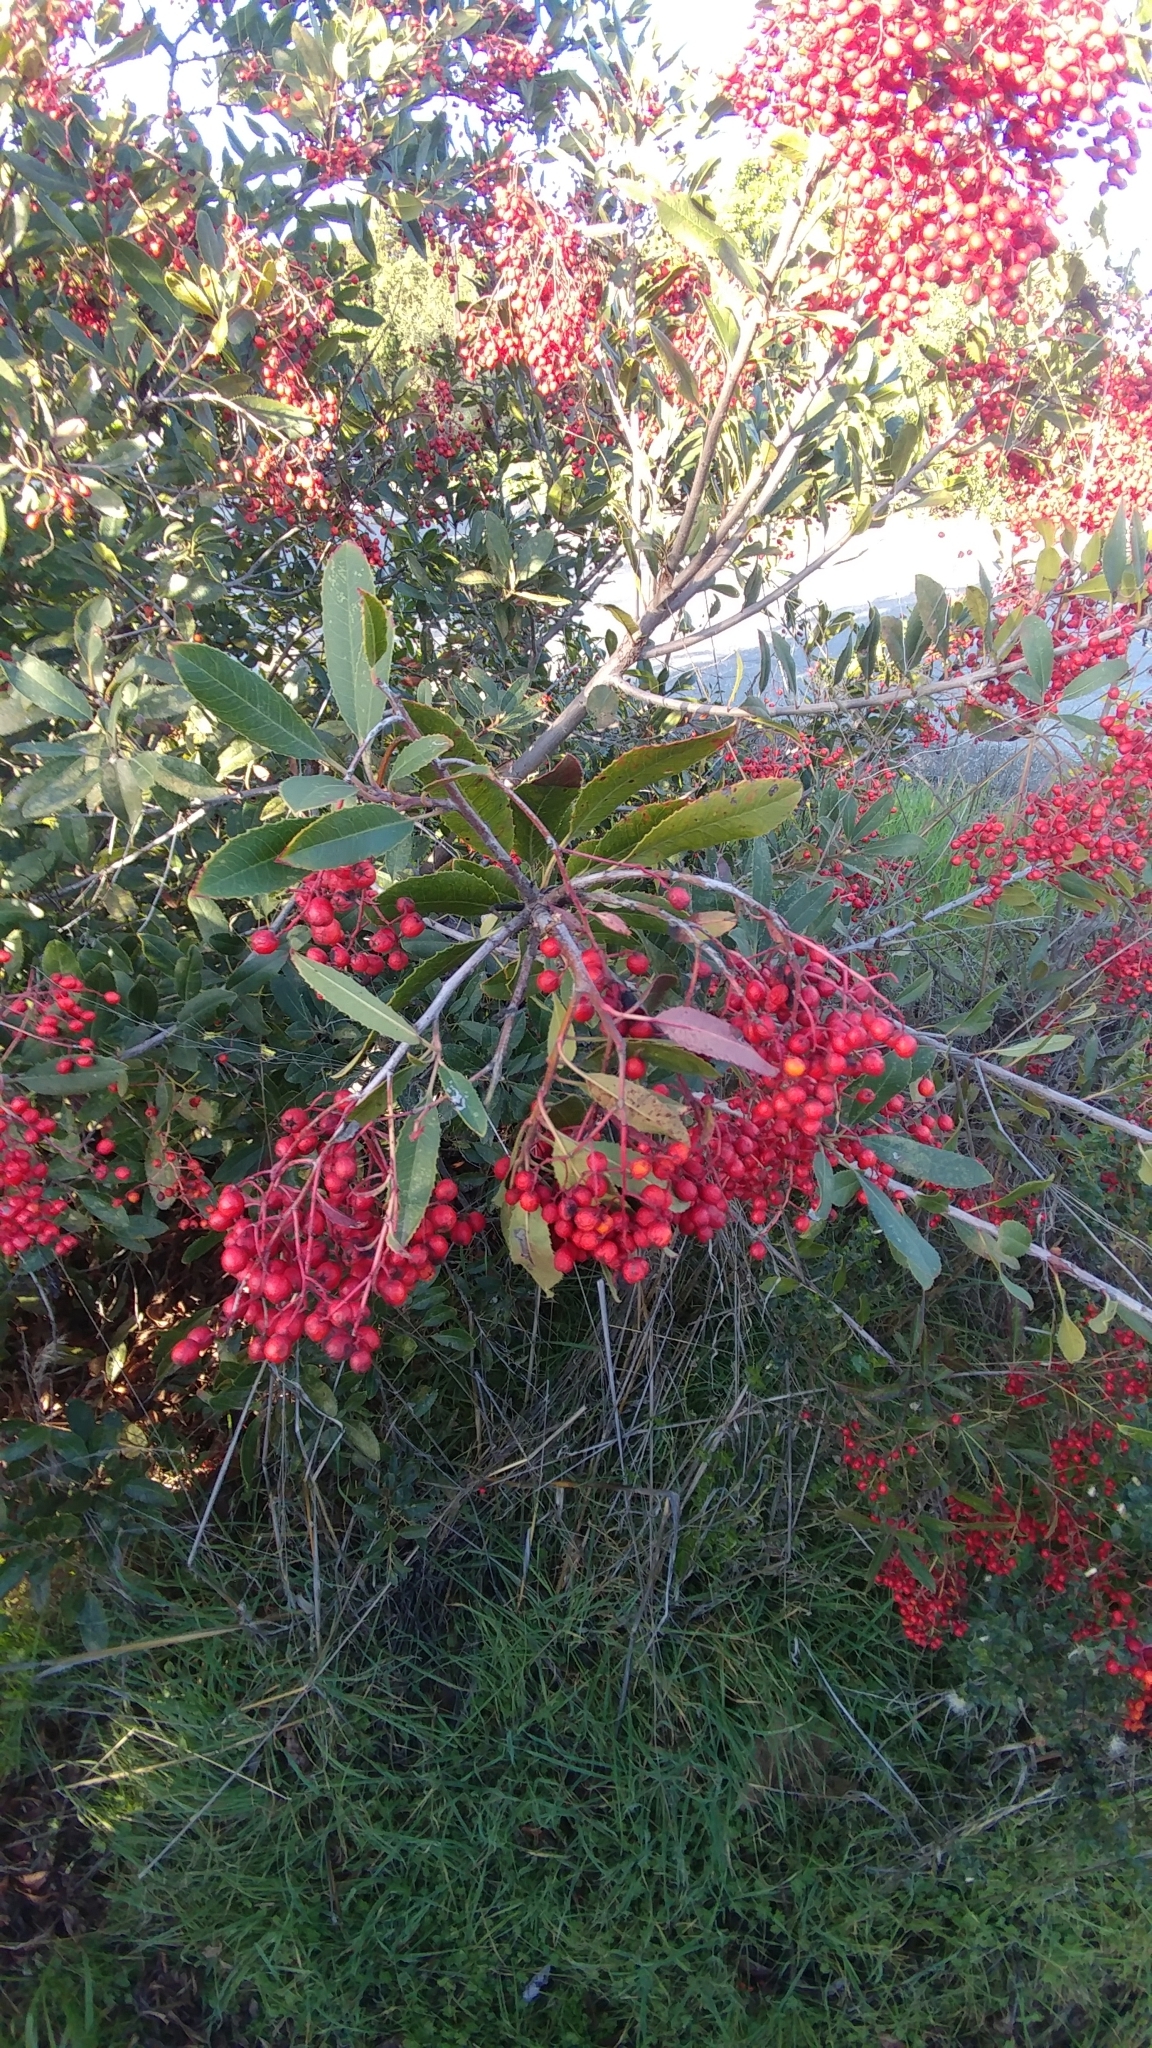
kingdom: Plantae
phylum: Tracheophyta
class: Magnoliopsida
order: Rosales
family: Rosaceae
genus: Heteromeles
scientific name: Heteromeles arbutifolia
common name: California-holly
